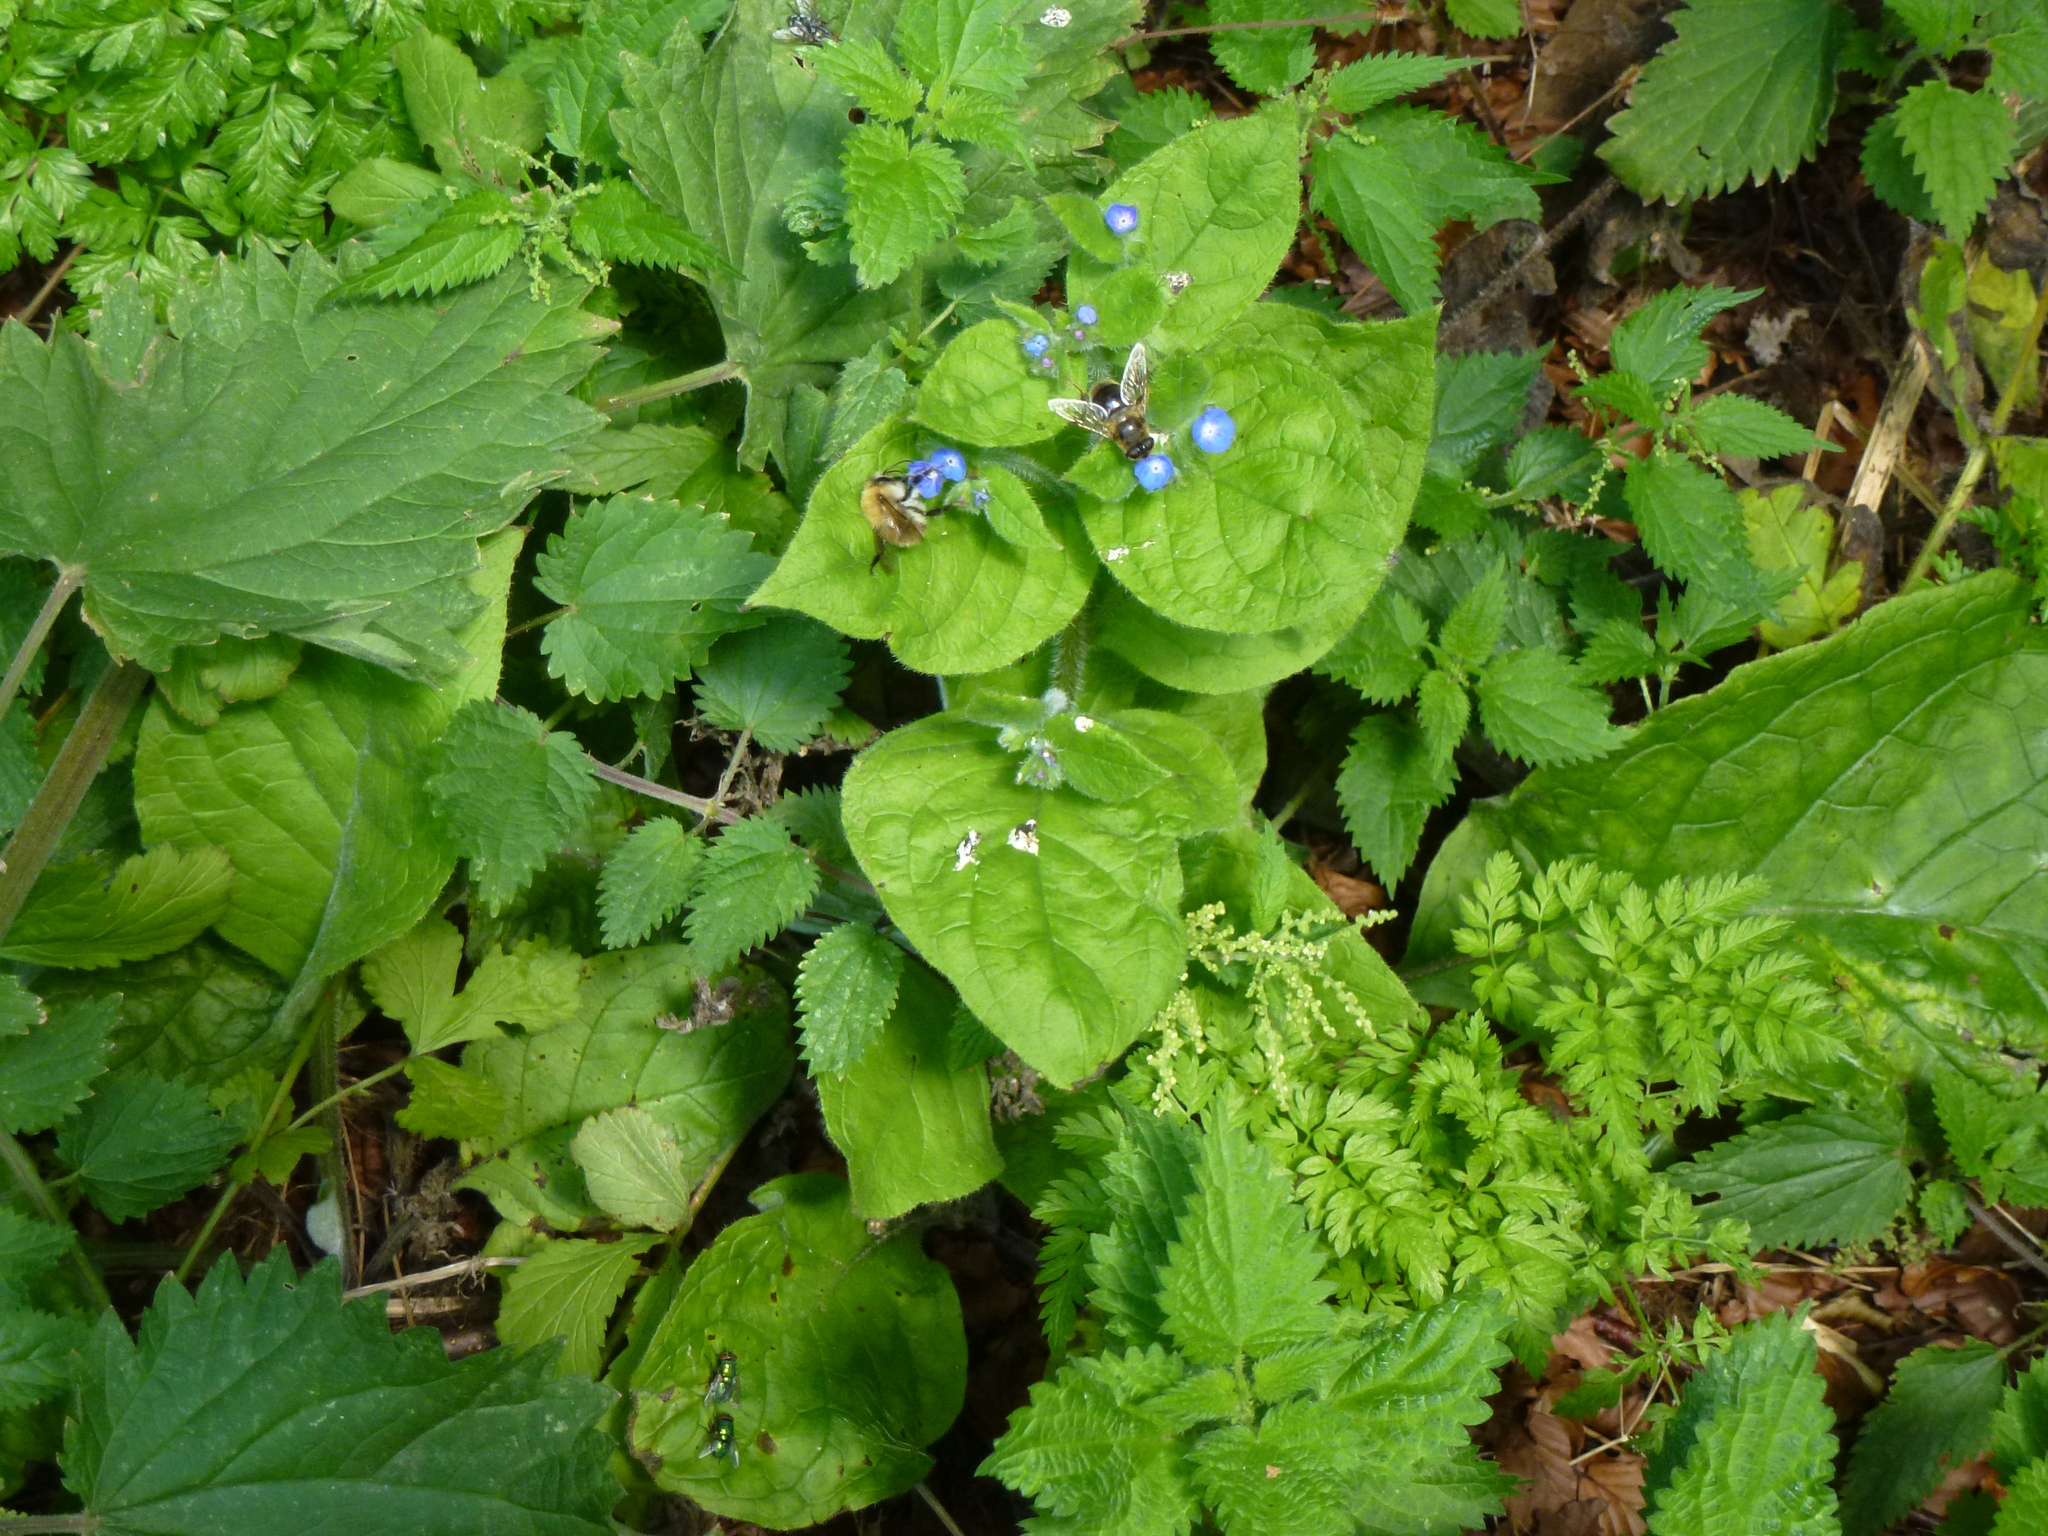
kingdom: Plantae
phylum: Tracheophyta
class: Magnoliopsida
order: Boraginales
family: Boraginaceae
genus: Pentaglottis
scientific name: Pentaglottis sempervirens
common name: Green alkanet
